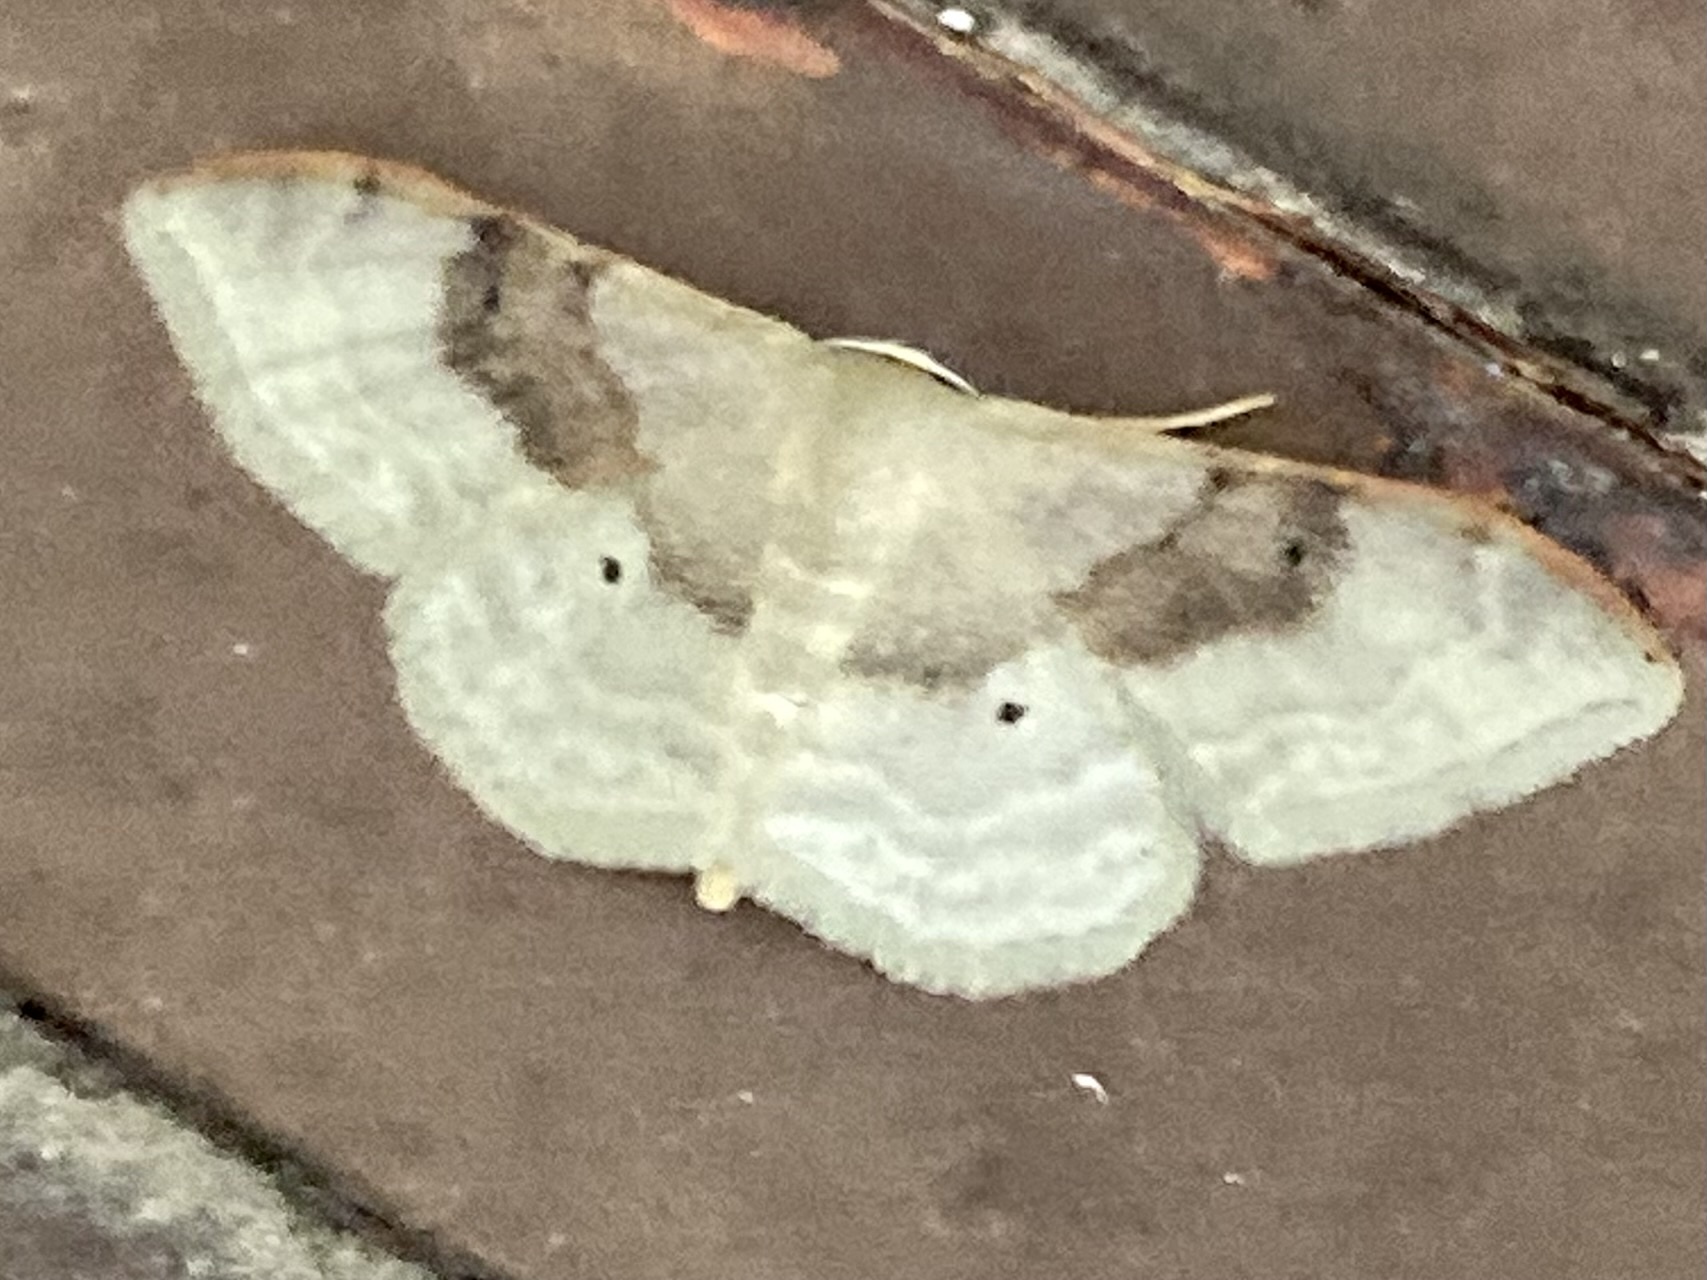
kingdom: Animalia
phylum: Arthropoda
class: Insecta
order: Lepidoptera
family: Geometridae
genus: Idaea
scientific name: Idaea degeneraria
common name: Portland ribbon wave
